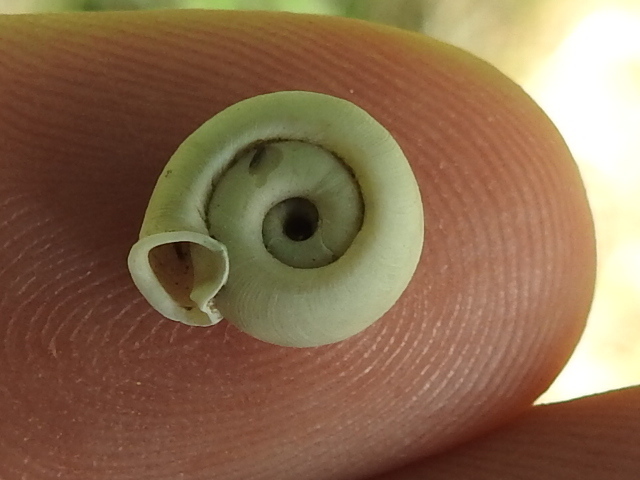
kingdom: Animalia
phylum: Mollusca
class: Gastropoda
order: Stylommatophora
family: Polygyridae
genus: Polygyra
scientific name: Polygyra cereolus
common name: Southern flatcone snail
